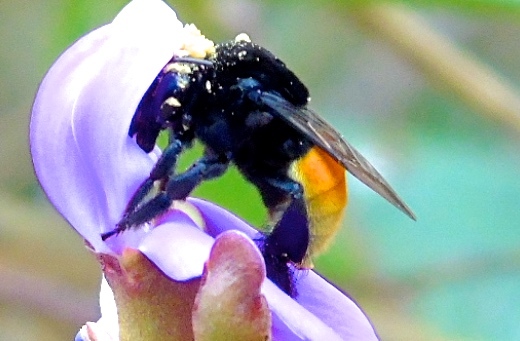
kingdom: Animalia
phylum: Arthropoda
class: Insecta
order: Hymenoptera
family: Apidae
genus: Apidae
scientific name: Apidae
